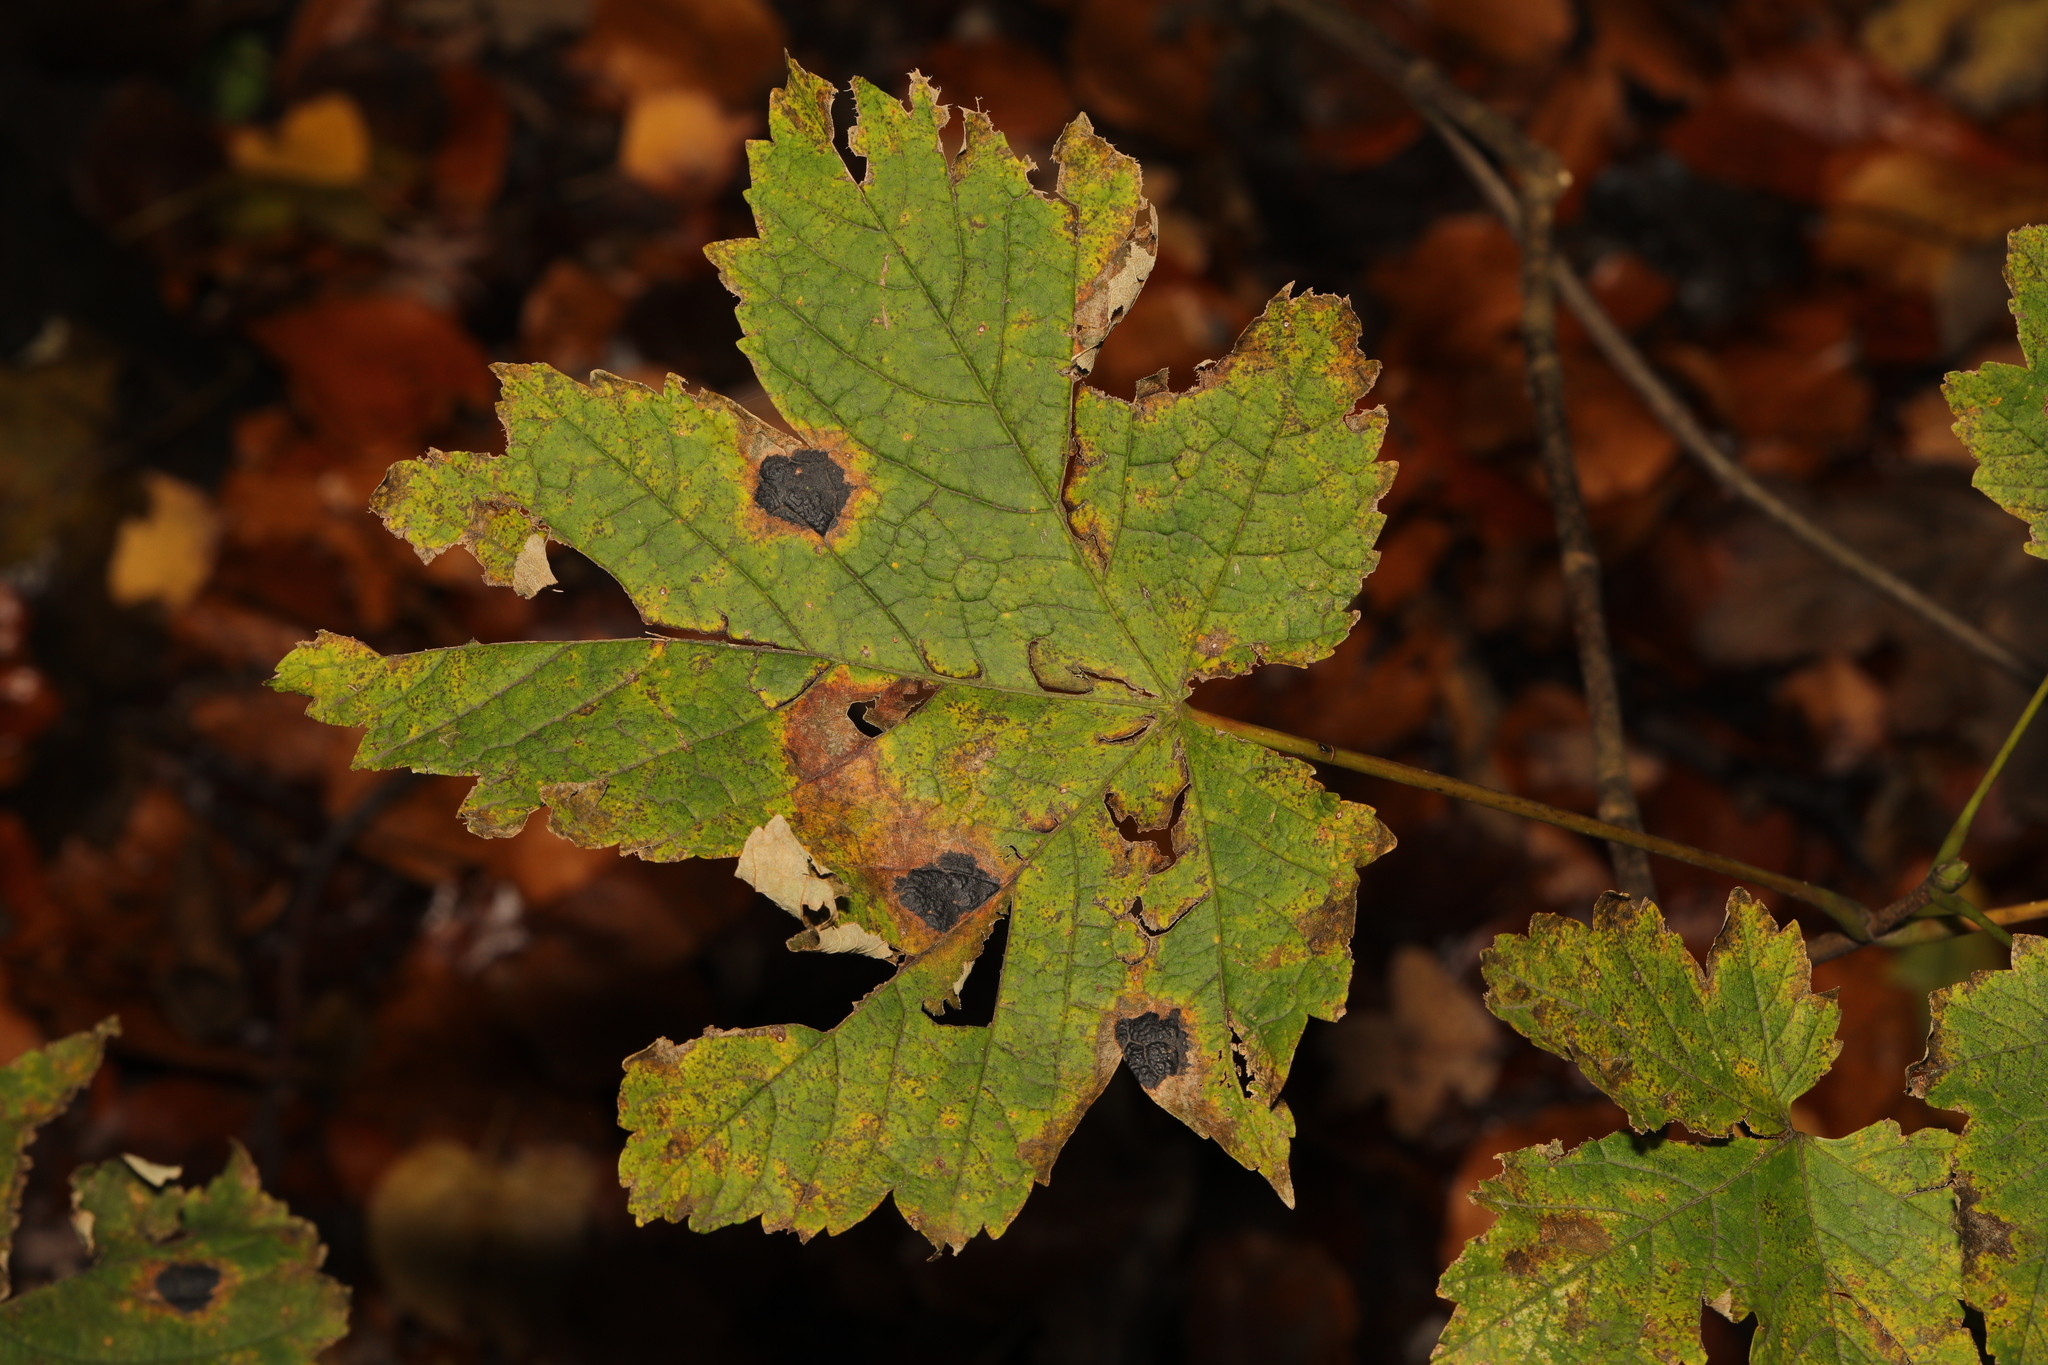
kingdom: Fungi
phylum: Ascomycota
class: Leotiomycetes
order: Rhytismatales
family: Rhytismataceae
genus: Rhytisma
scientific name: Rhytisma acerinum
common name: European tar spot
